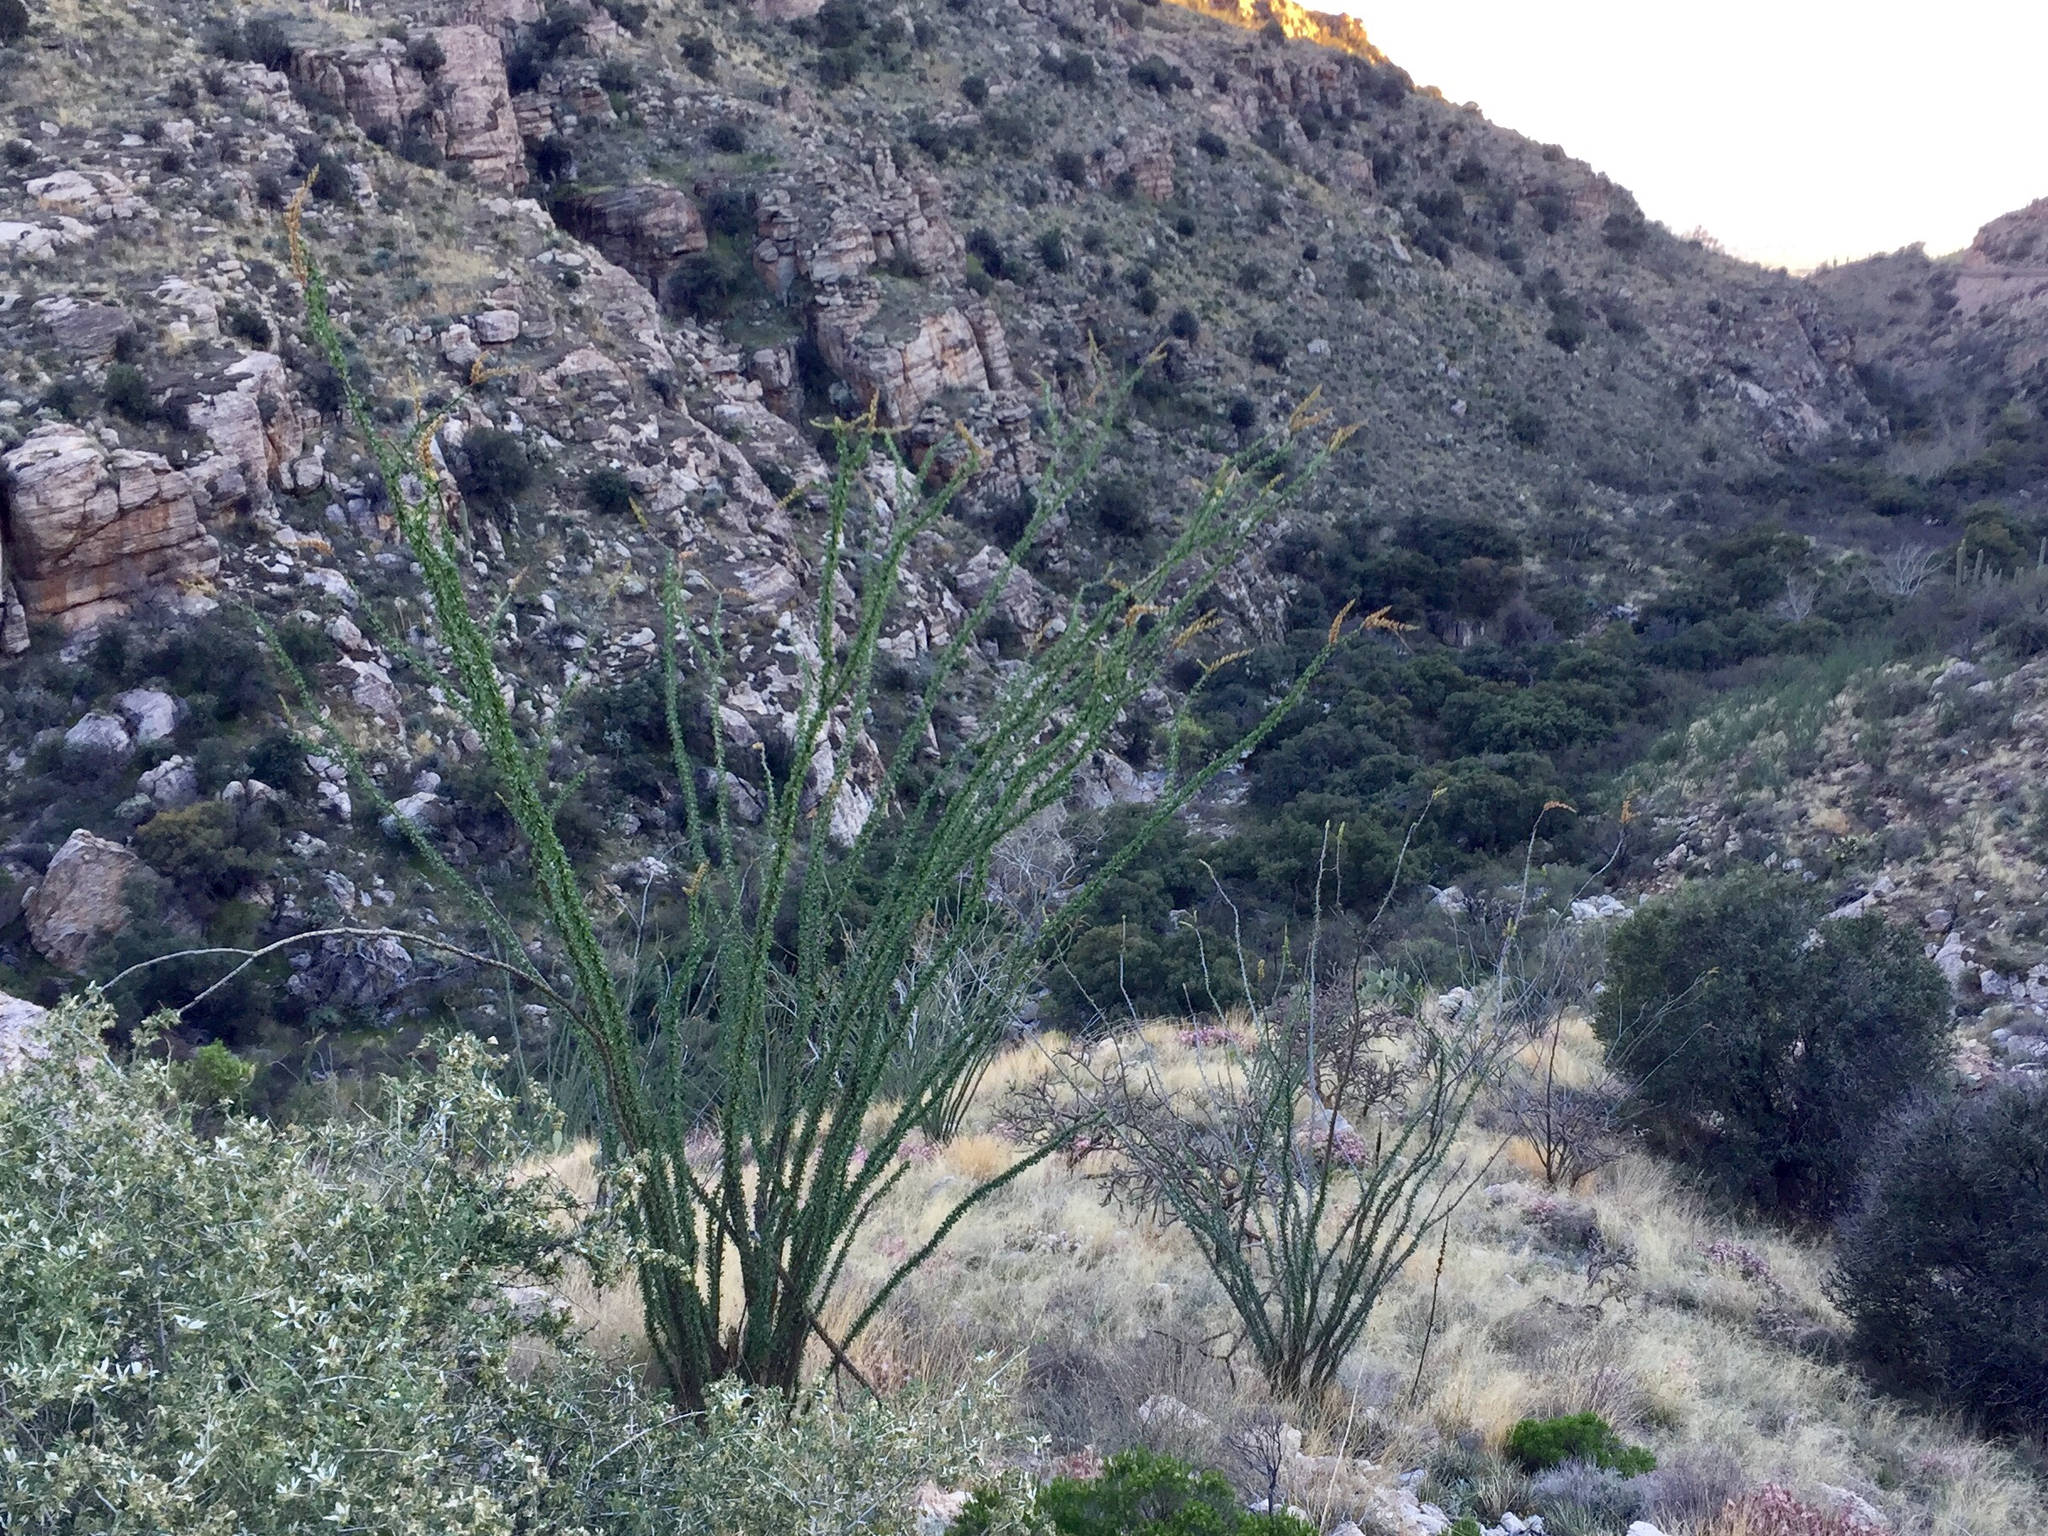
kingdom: Plantae
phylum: Tracheophyta
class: Magnoliopsida
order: Ericales
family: Fouquieriaceae
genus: Fouquieria
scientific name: Fouquieria splendens
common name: Vine-cactus
